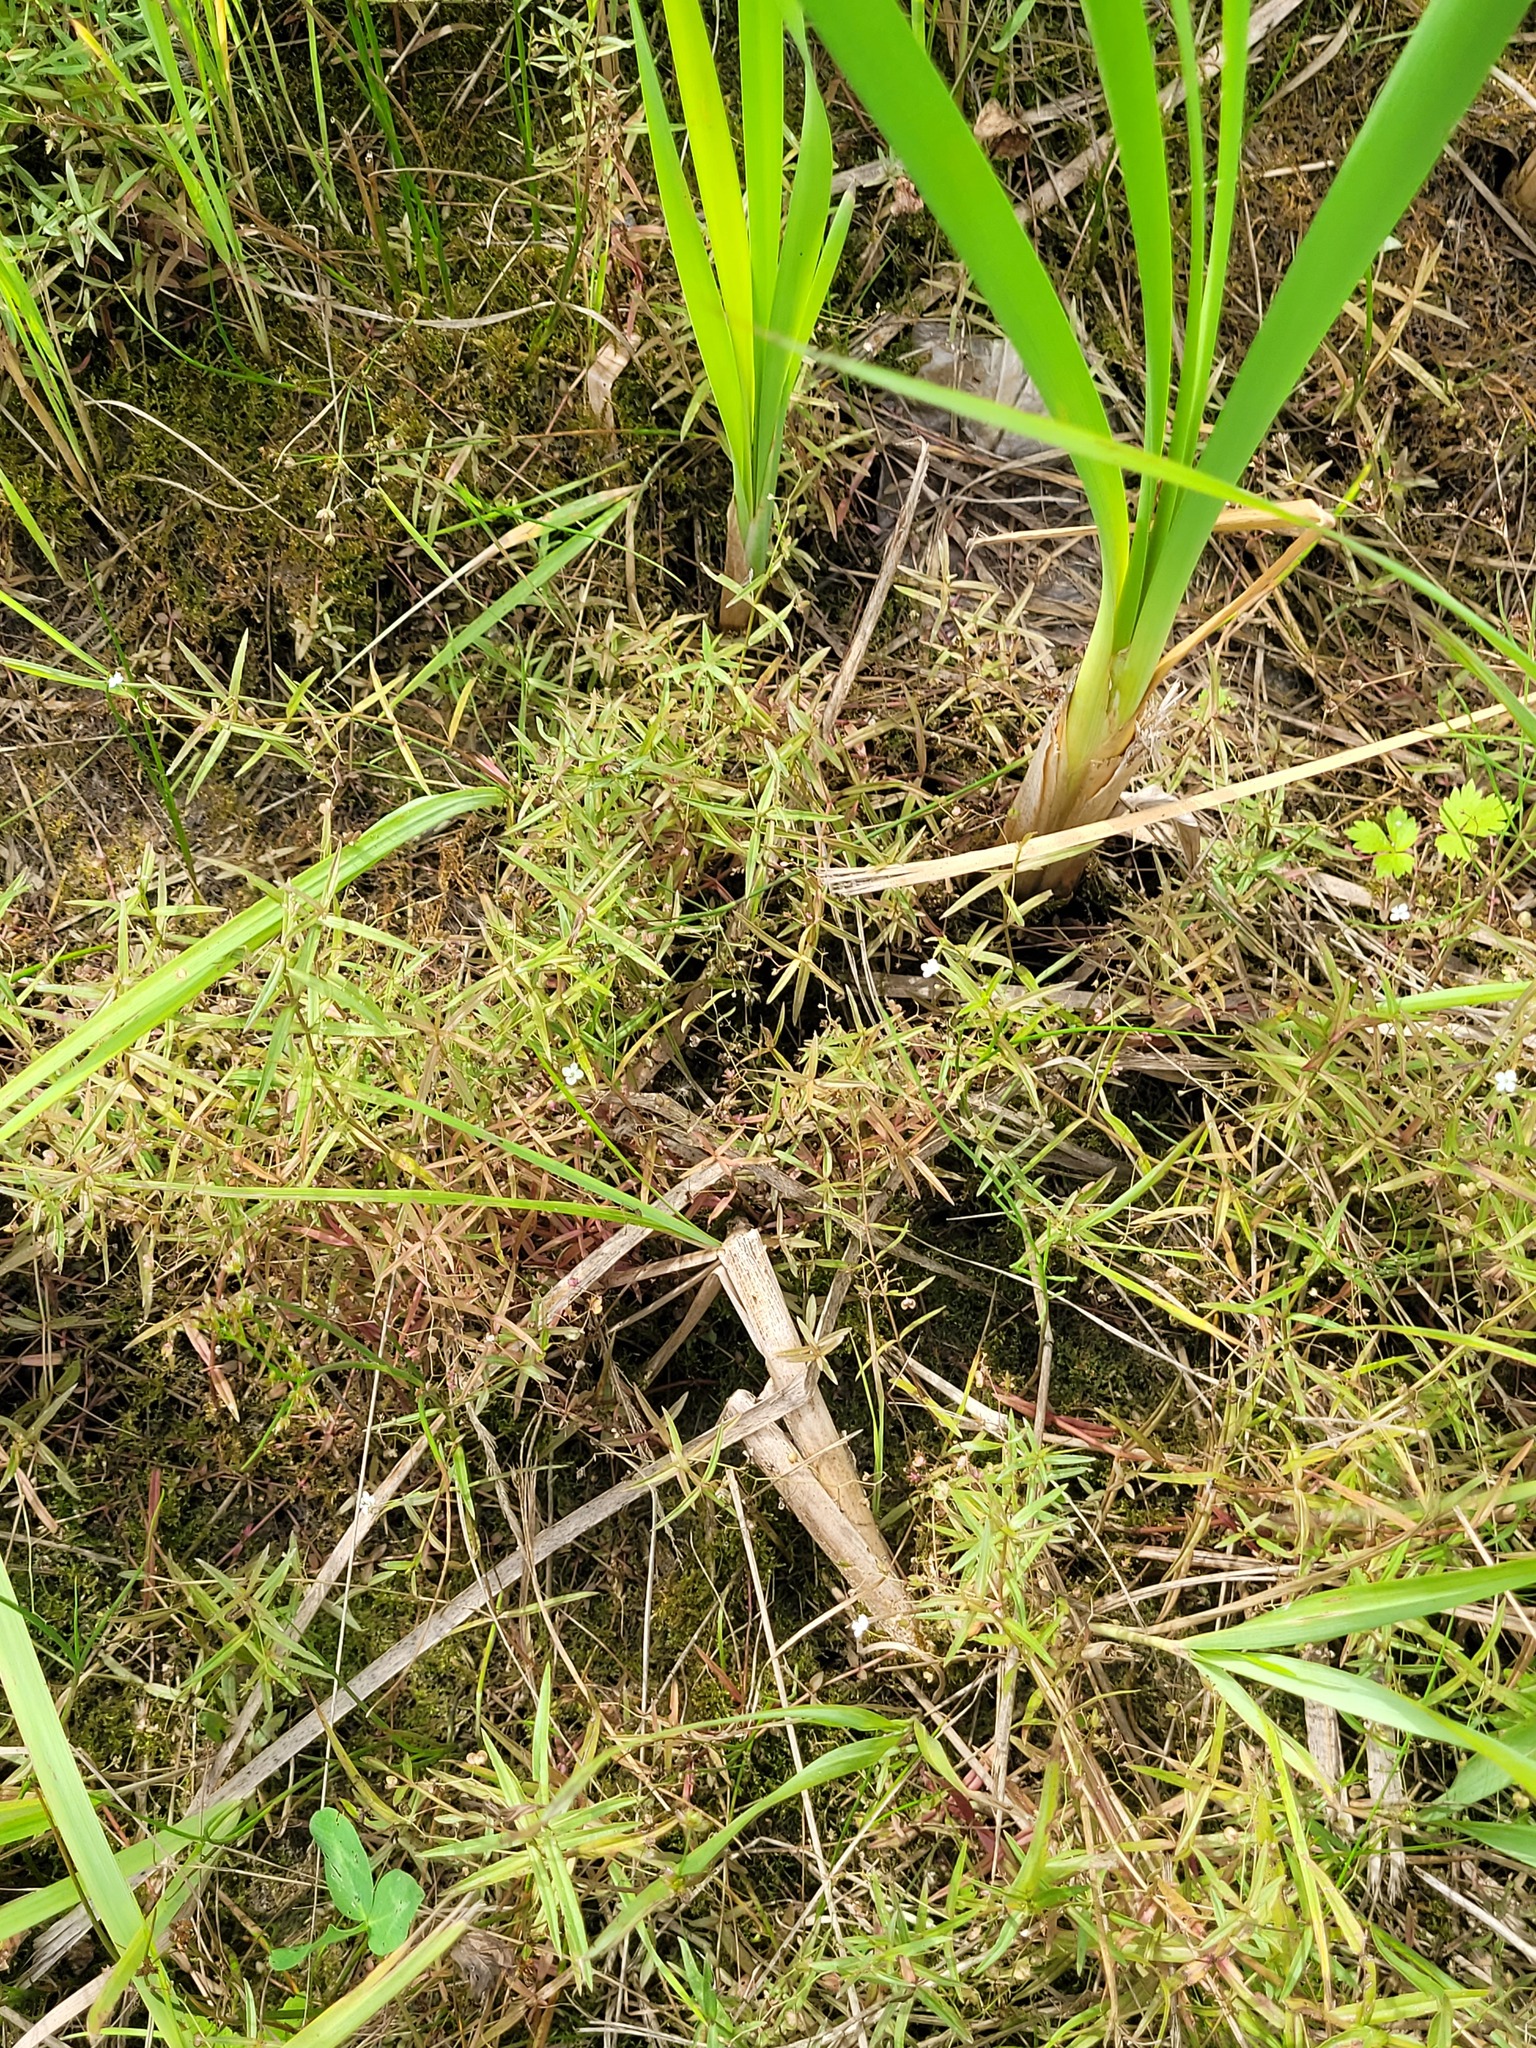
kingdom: Plantae
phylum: Tracheophyta
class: Magnoliopsida
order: Lamiales
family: Plantaginaceae
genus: Veronica
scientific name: Veronica scutellata
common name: Marsh speedwell
